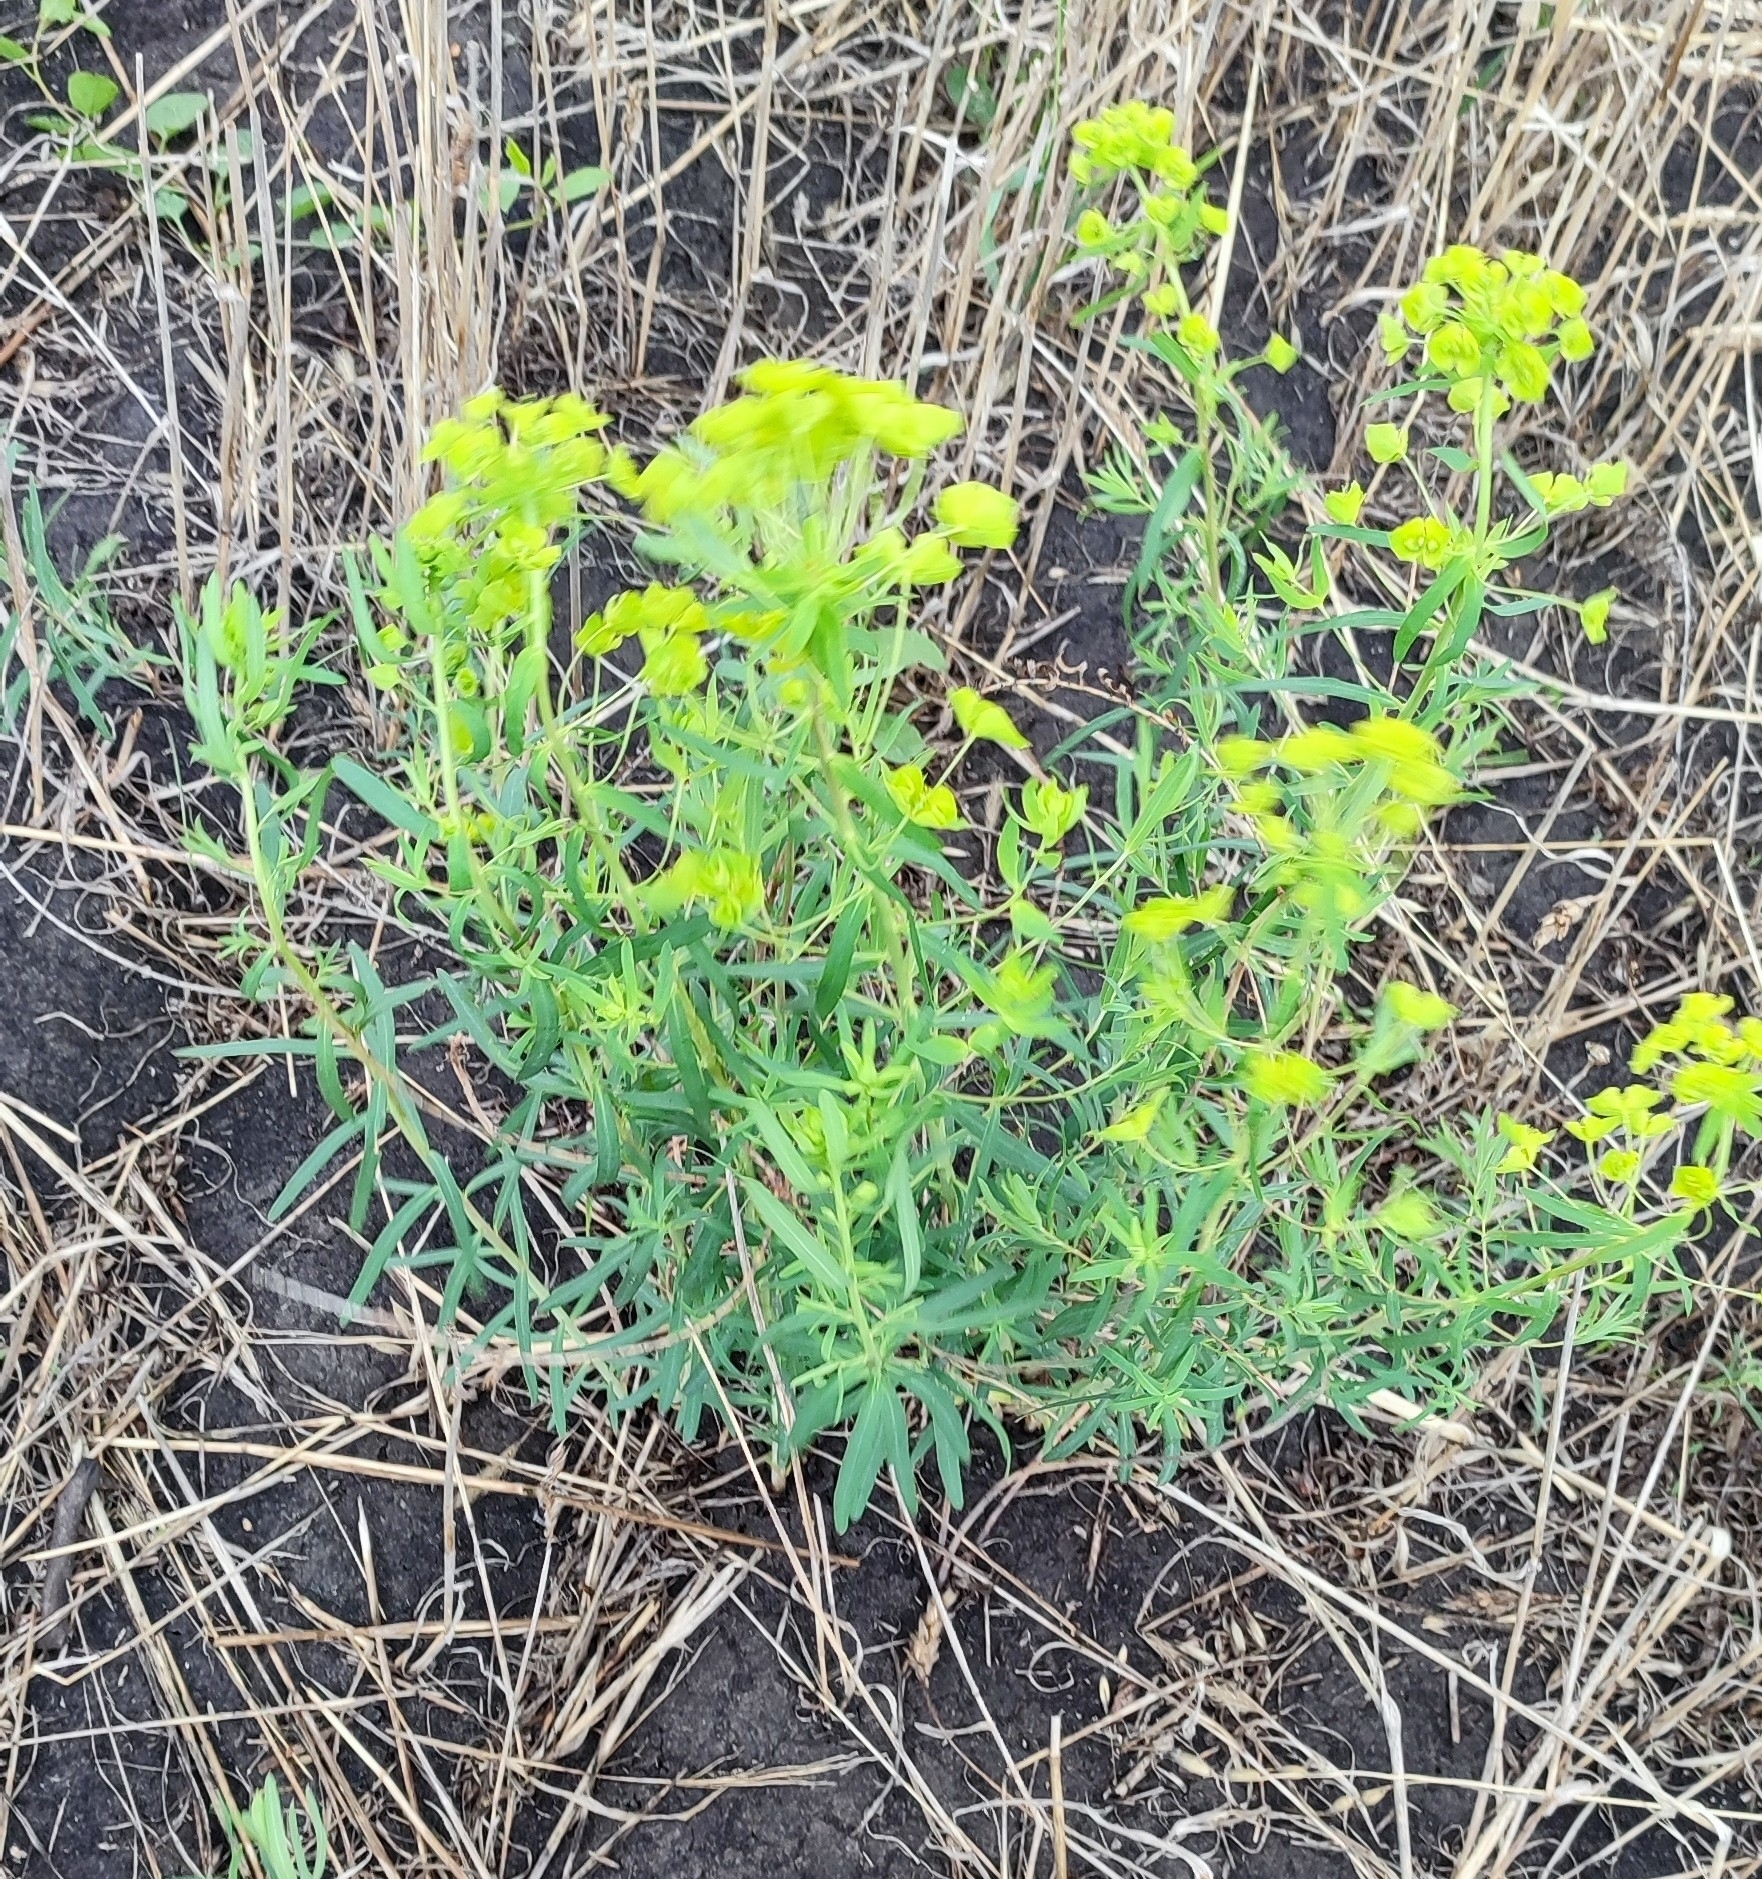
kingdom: Plantae
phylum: Tracheophyta
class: Magnoliopsida
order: Malpighiales
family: Euphorbiaceae
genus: Euphorbia
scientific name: Euphorbia virgata
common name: Leafy spurge
